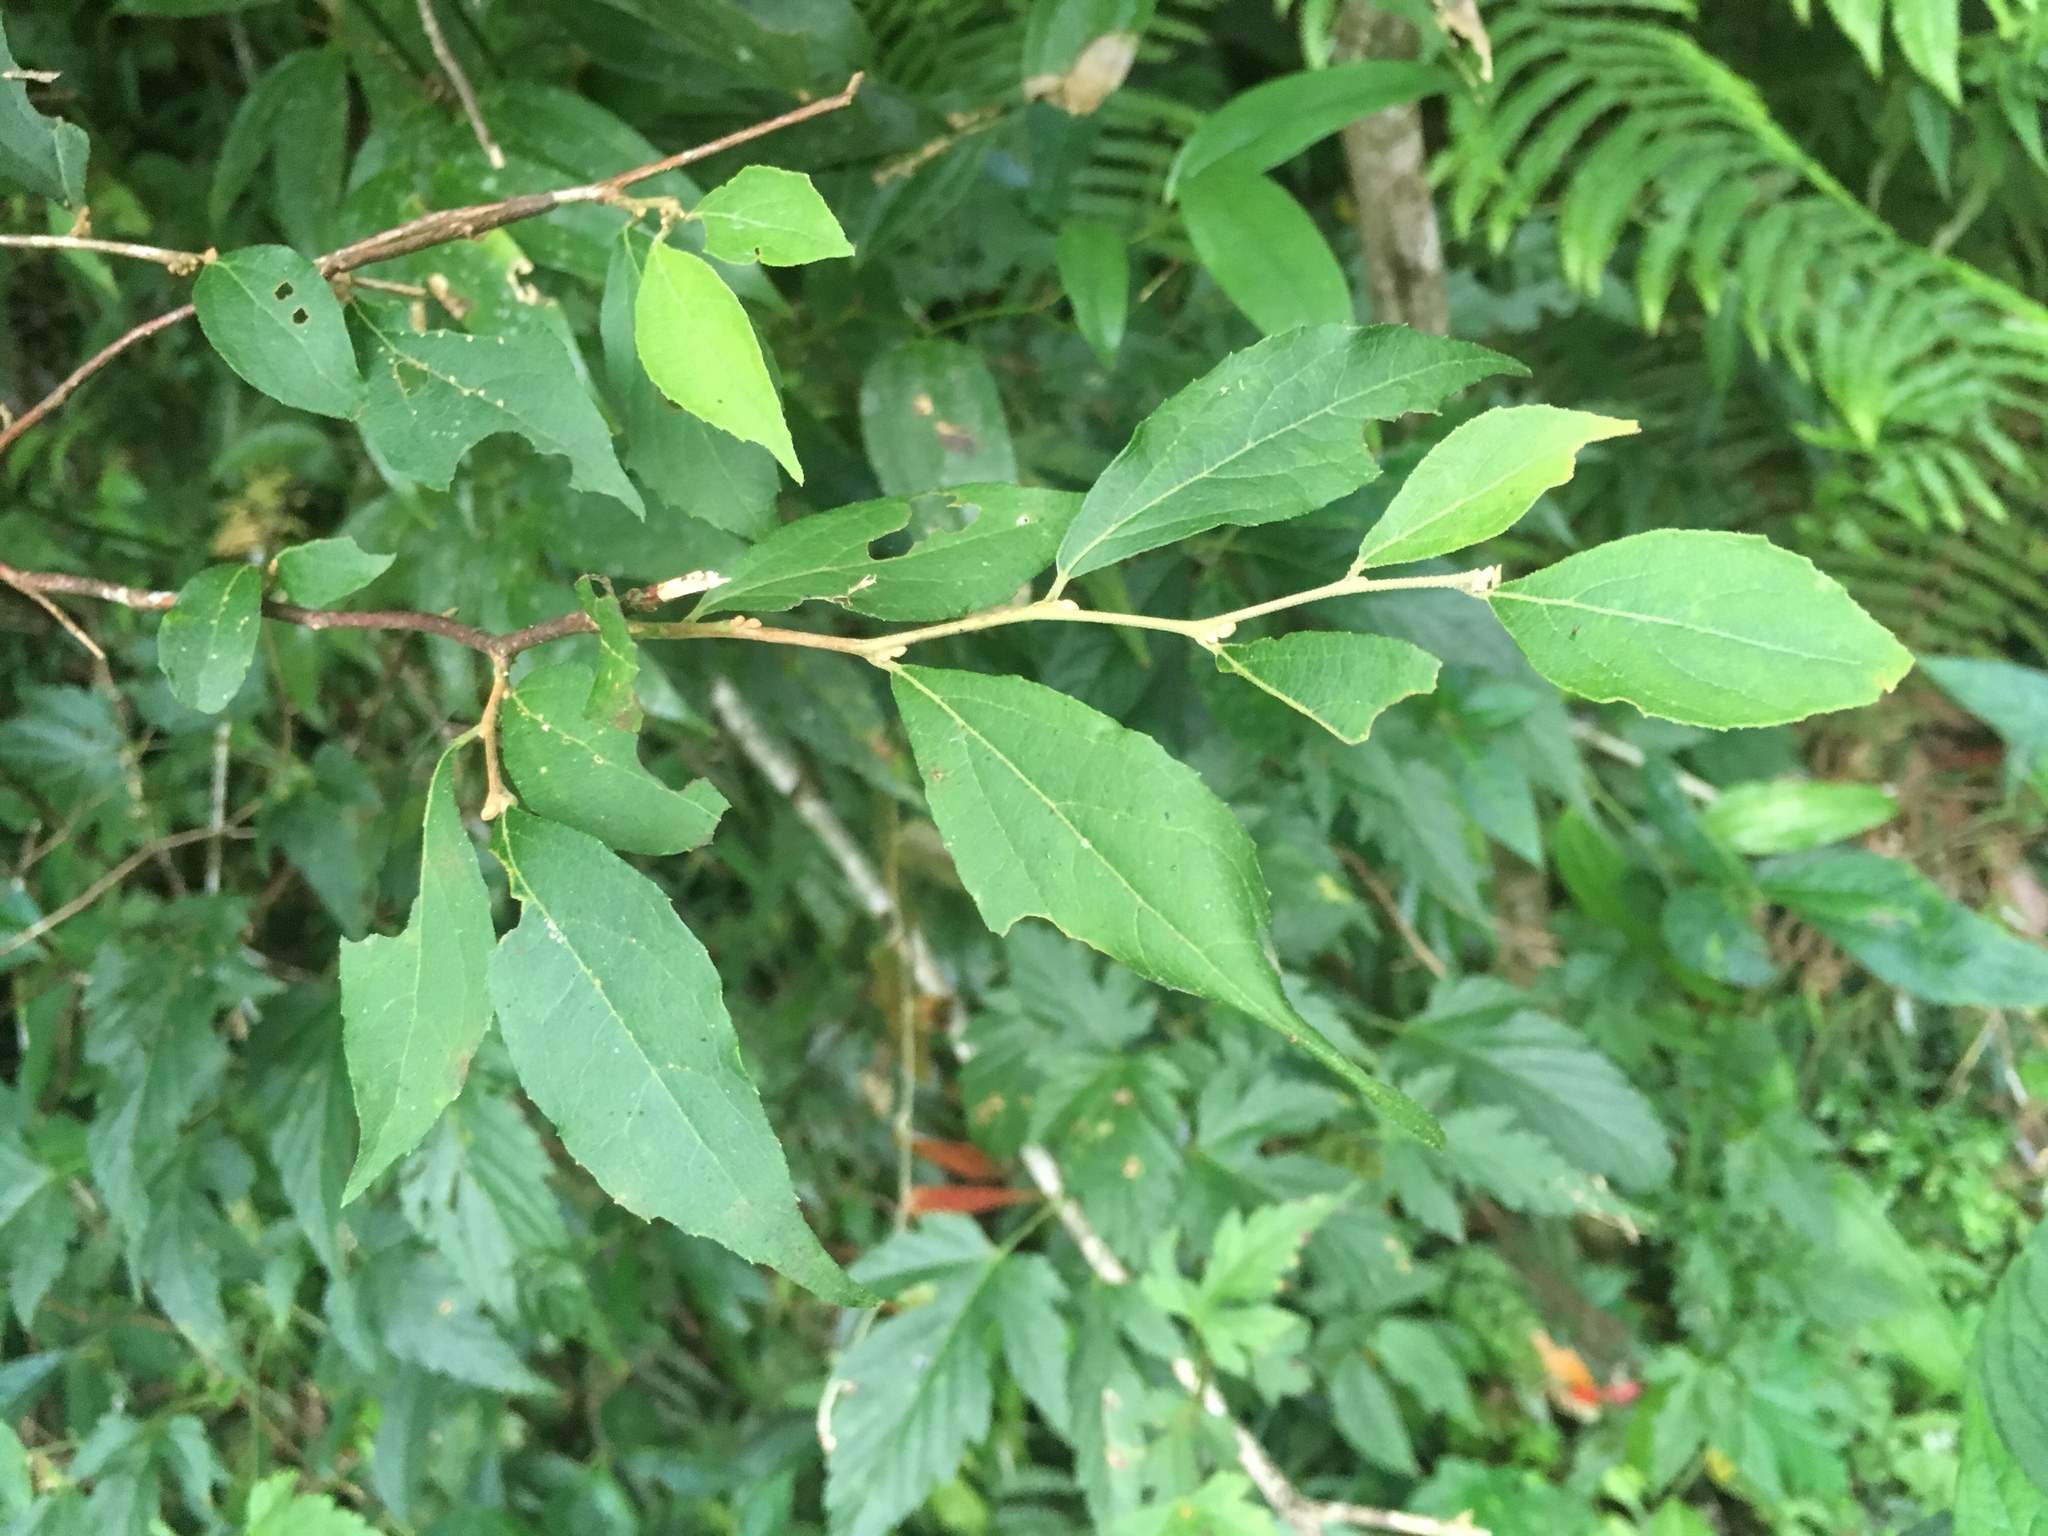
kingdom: Plantae
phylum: Tracheophyta
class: Magnoliopsida
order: Ericales
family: Styracaceae
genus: Styrax
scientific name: Styrax formosanus
